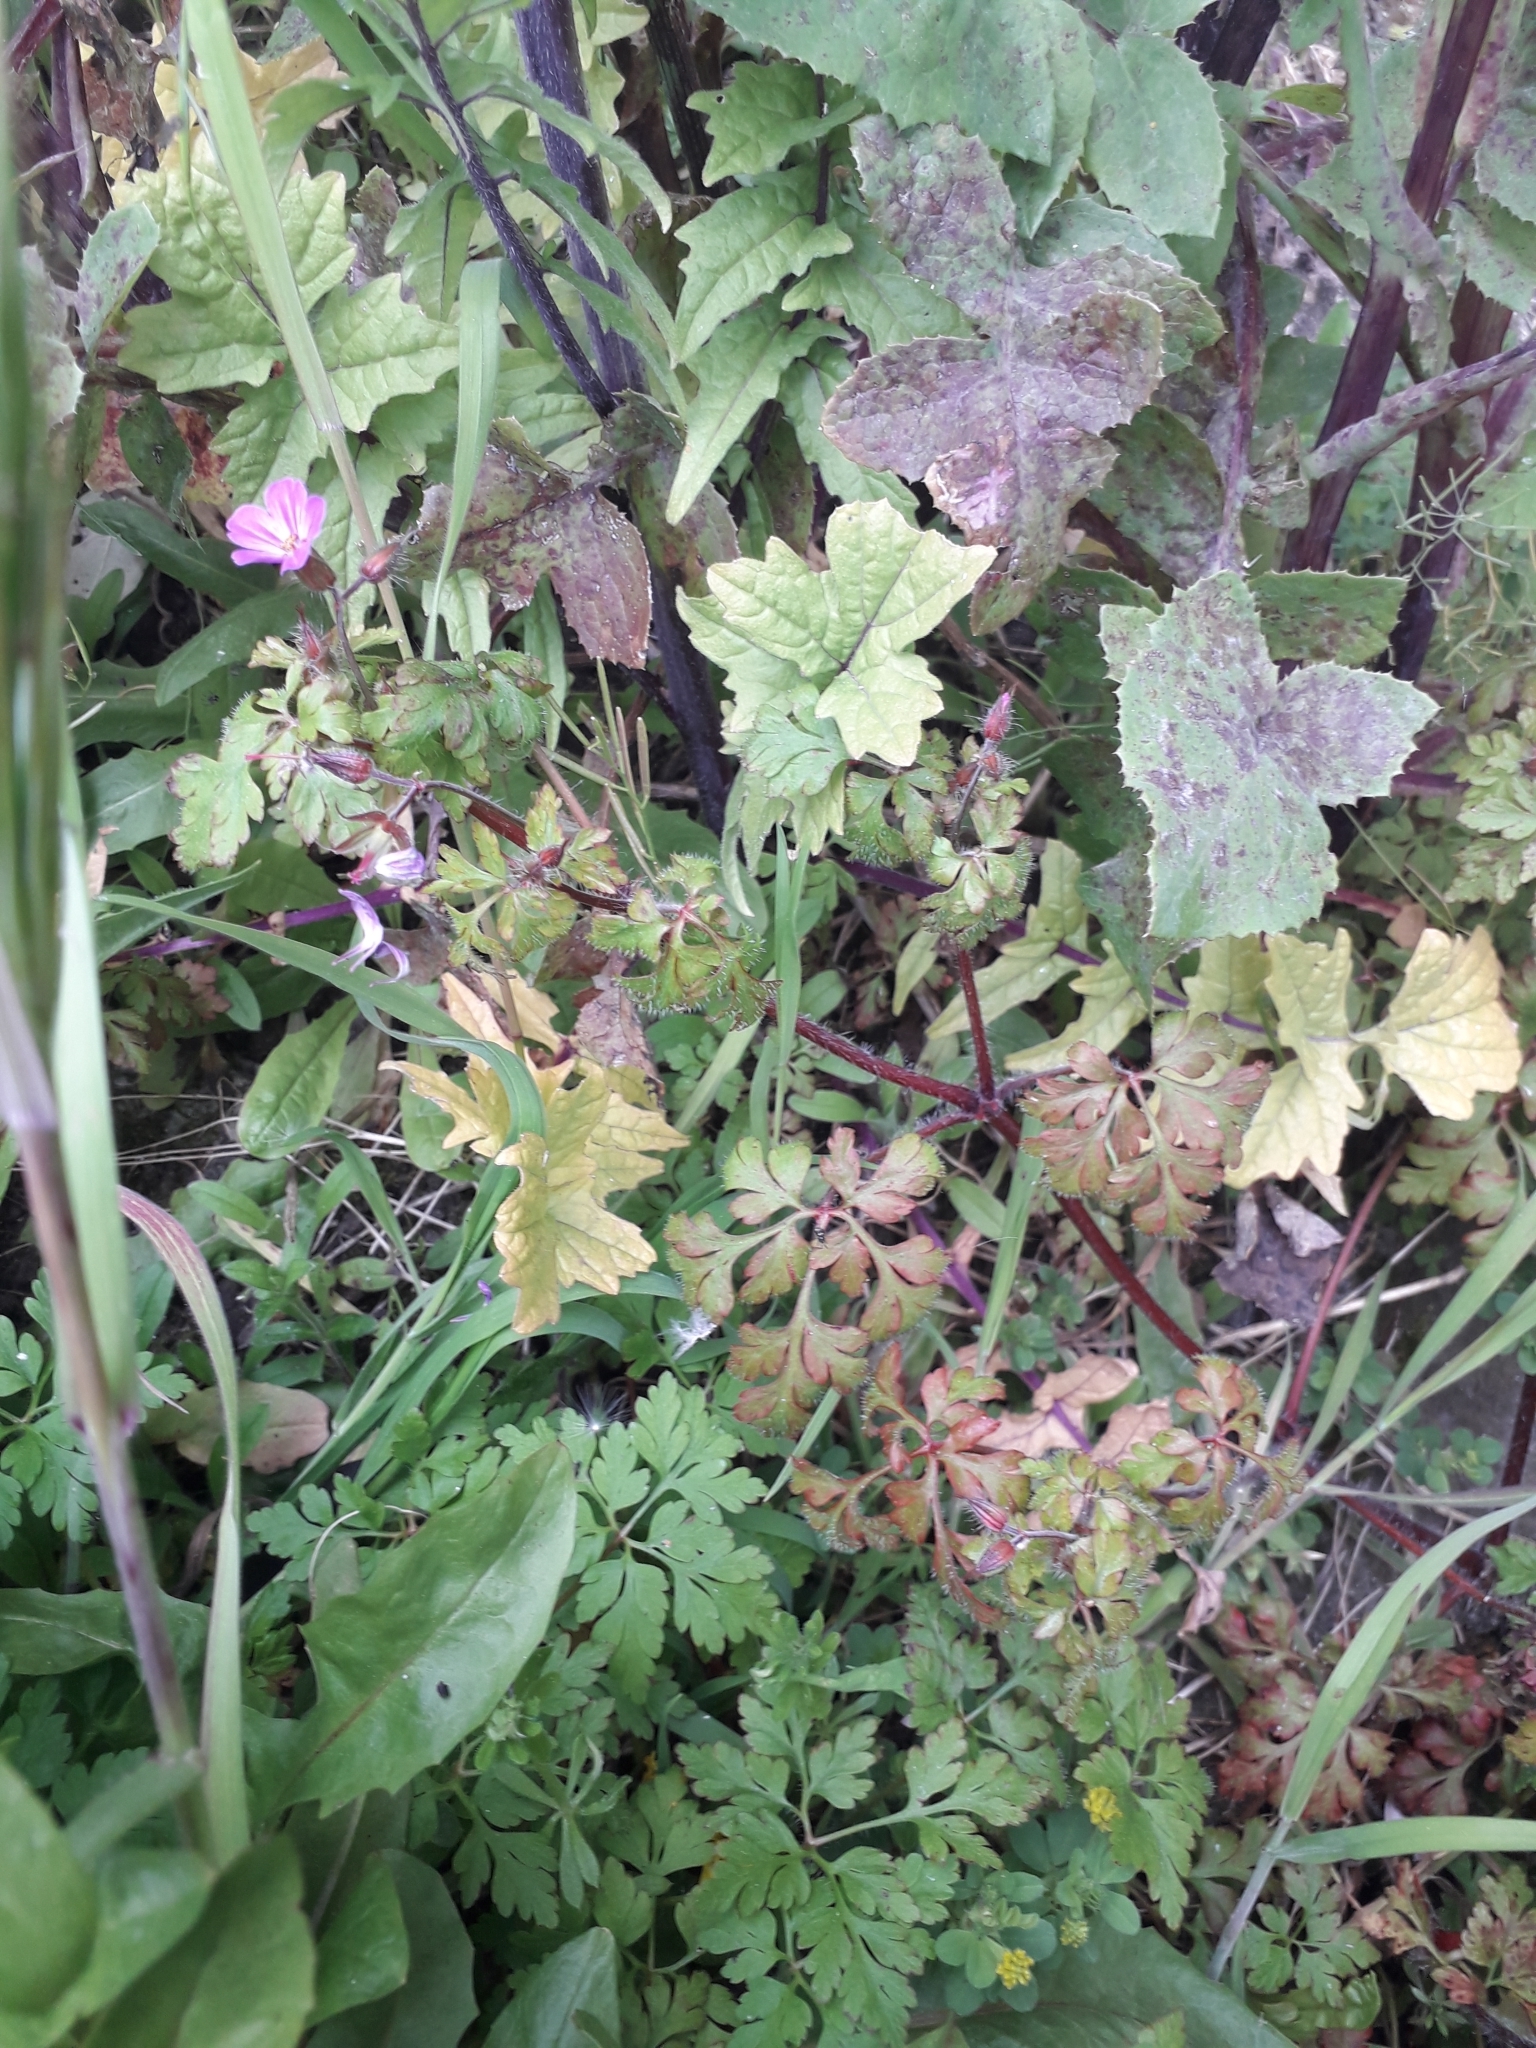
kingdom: Plantae
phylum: Tracheophyta
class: Magnoliopsida
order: Geraniales
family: Geraniaceae
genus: Geranium
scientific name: Geranium robertianum
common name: Herb-robert
